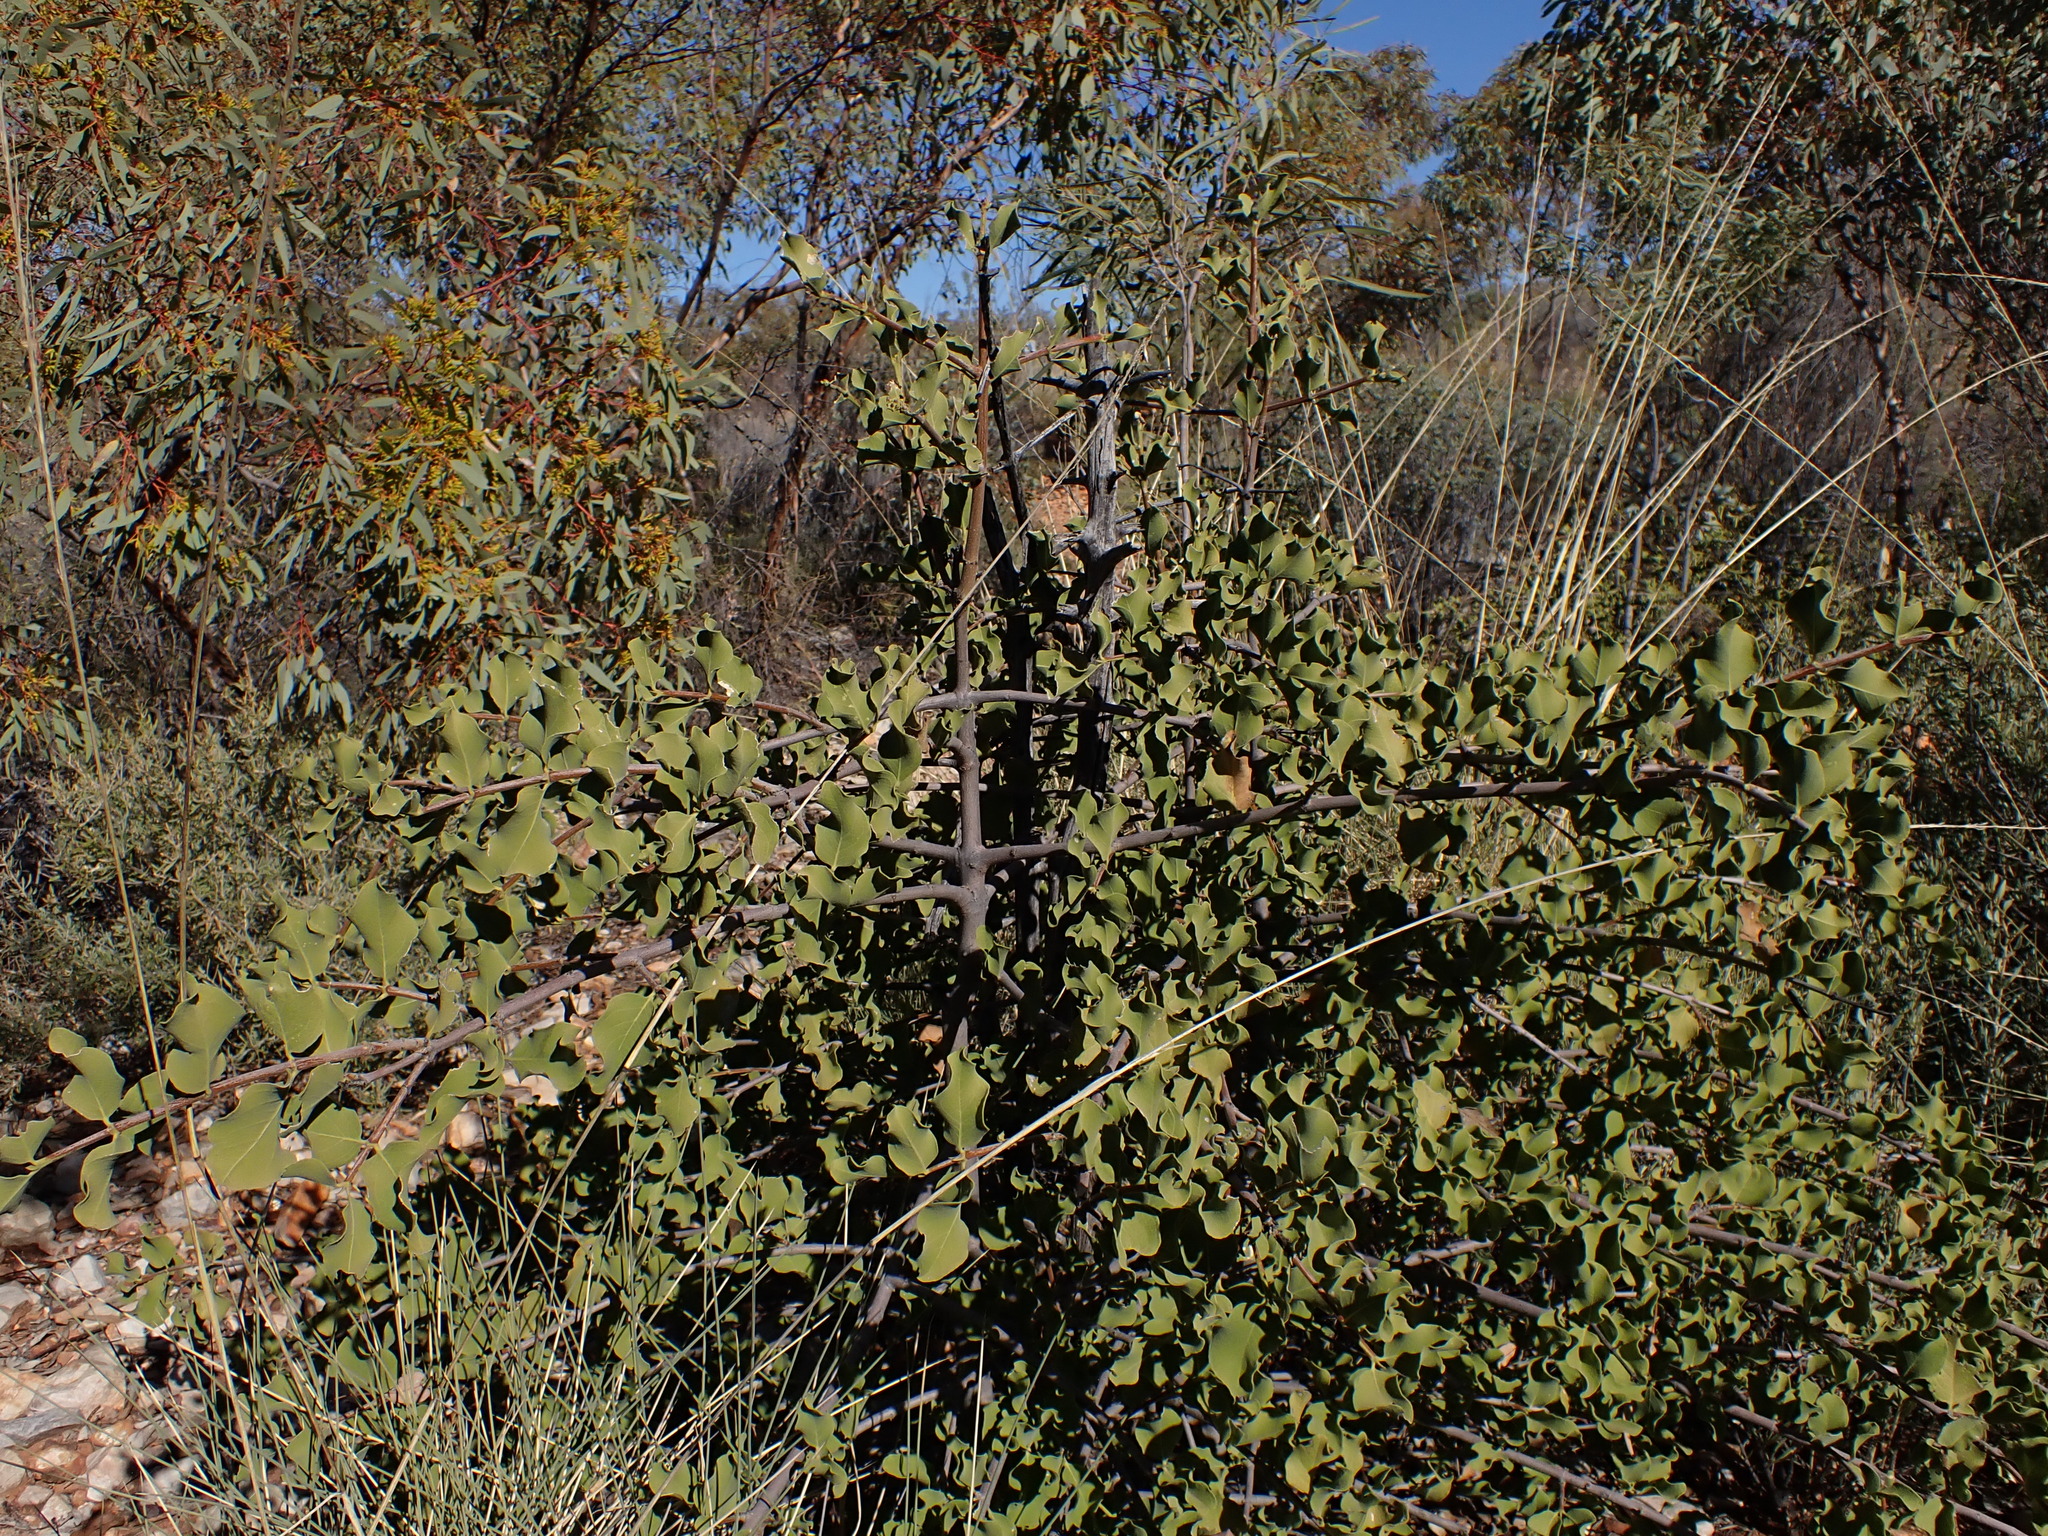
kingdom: Plantae
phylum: Tracheophyta
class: Magnoliopsida
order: Gentianales
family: Rubiaceae
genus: Psydrax
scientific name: Psydrax latifolius
